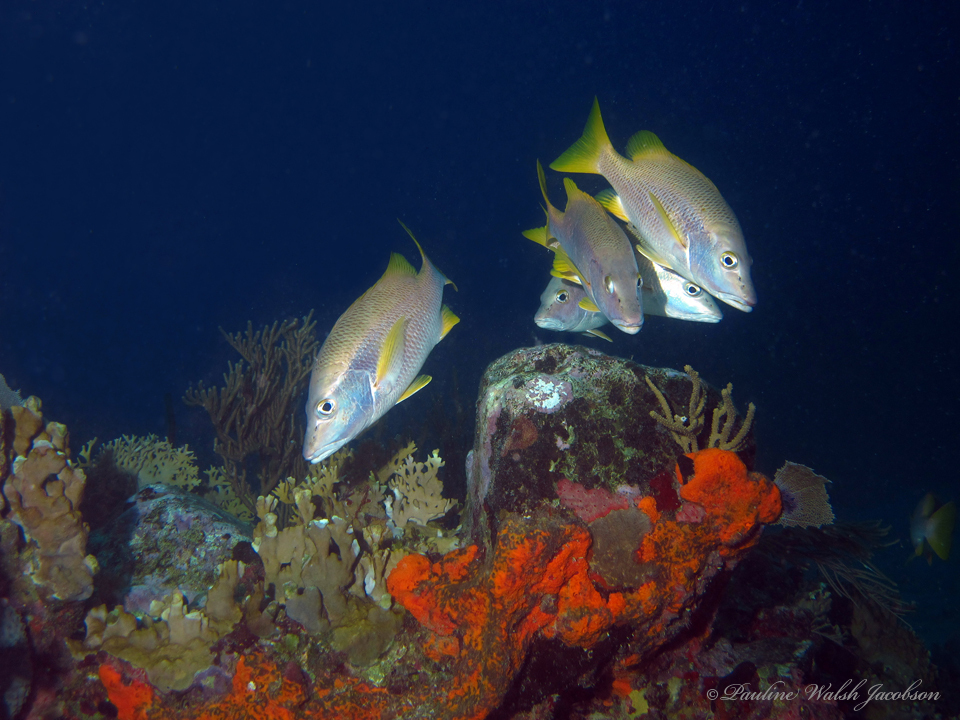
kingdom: Animalia
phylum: Chordata
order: Perciformes
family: Lutjanidae
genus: Lutjanus
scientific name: Lutjanus apodus
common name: Schoolmaster
